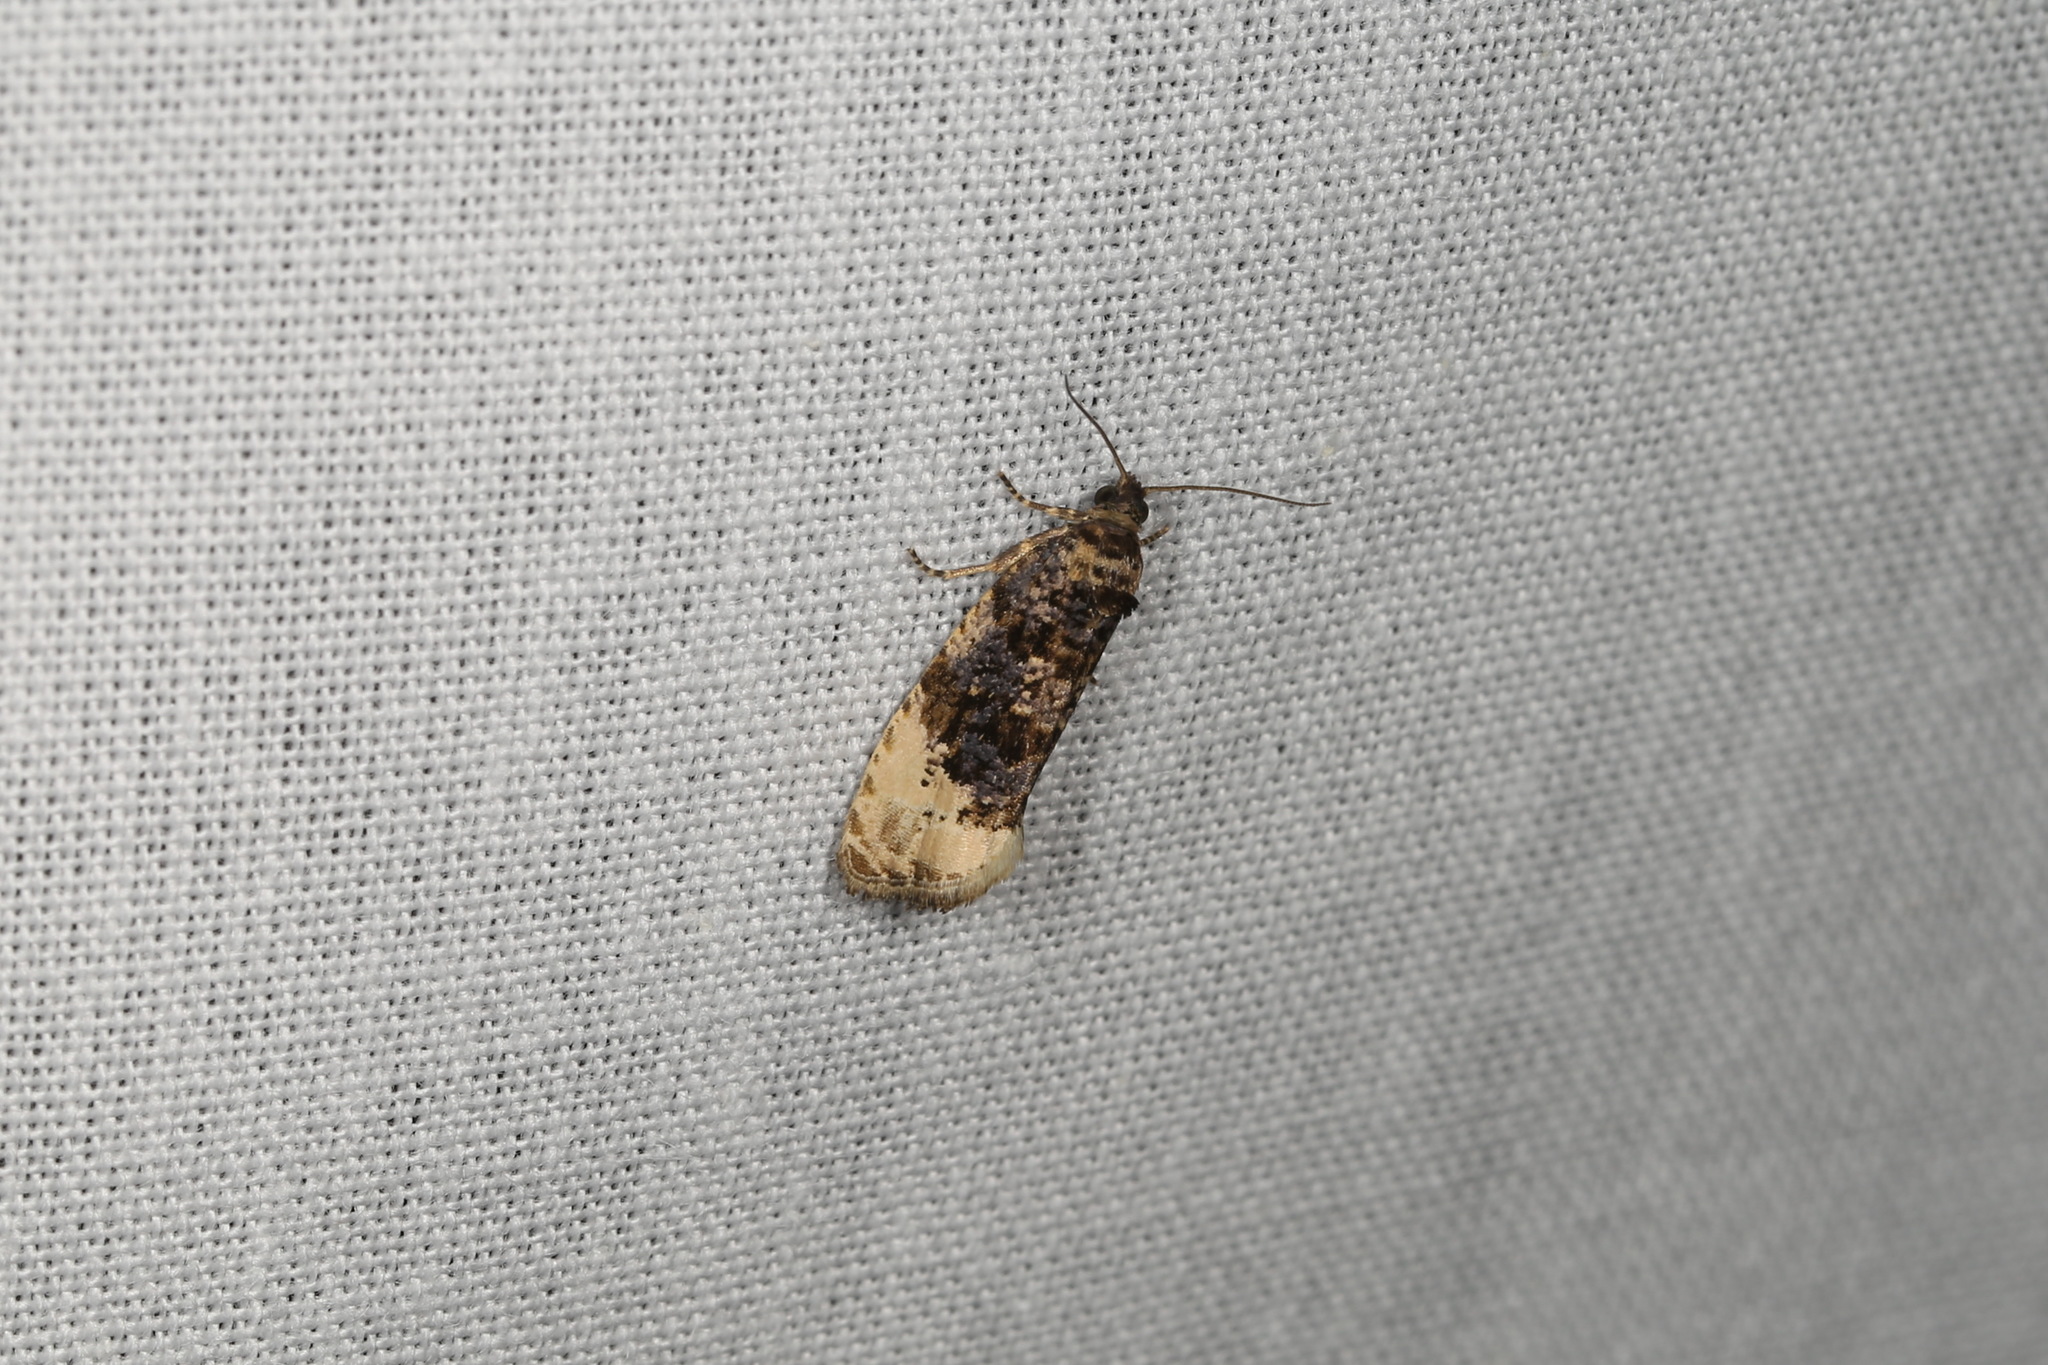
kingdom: Animalia
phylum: Arthropoda
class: Insecta
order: Lepidoptera
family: Tortricidae
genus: Hedya
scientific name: Hedya ochroleucana
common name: Buff-tipped marble
